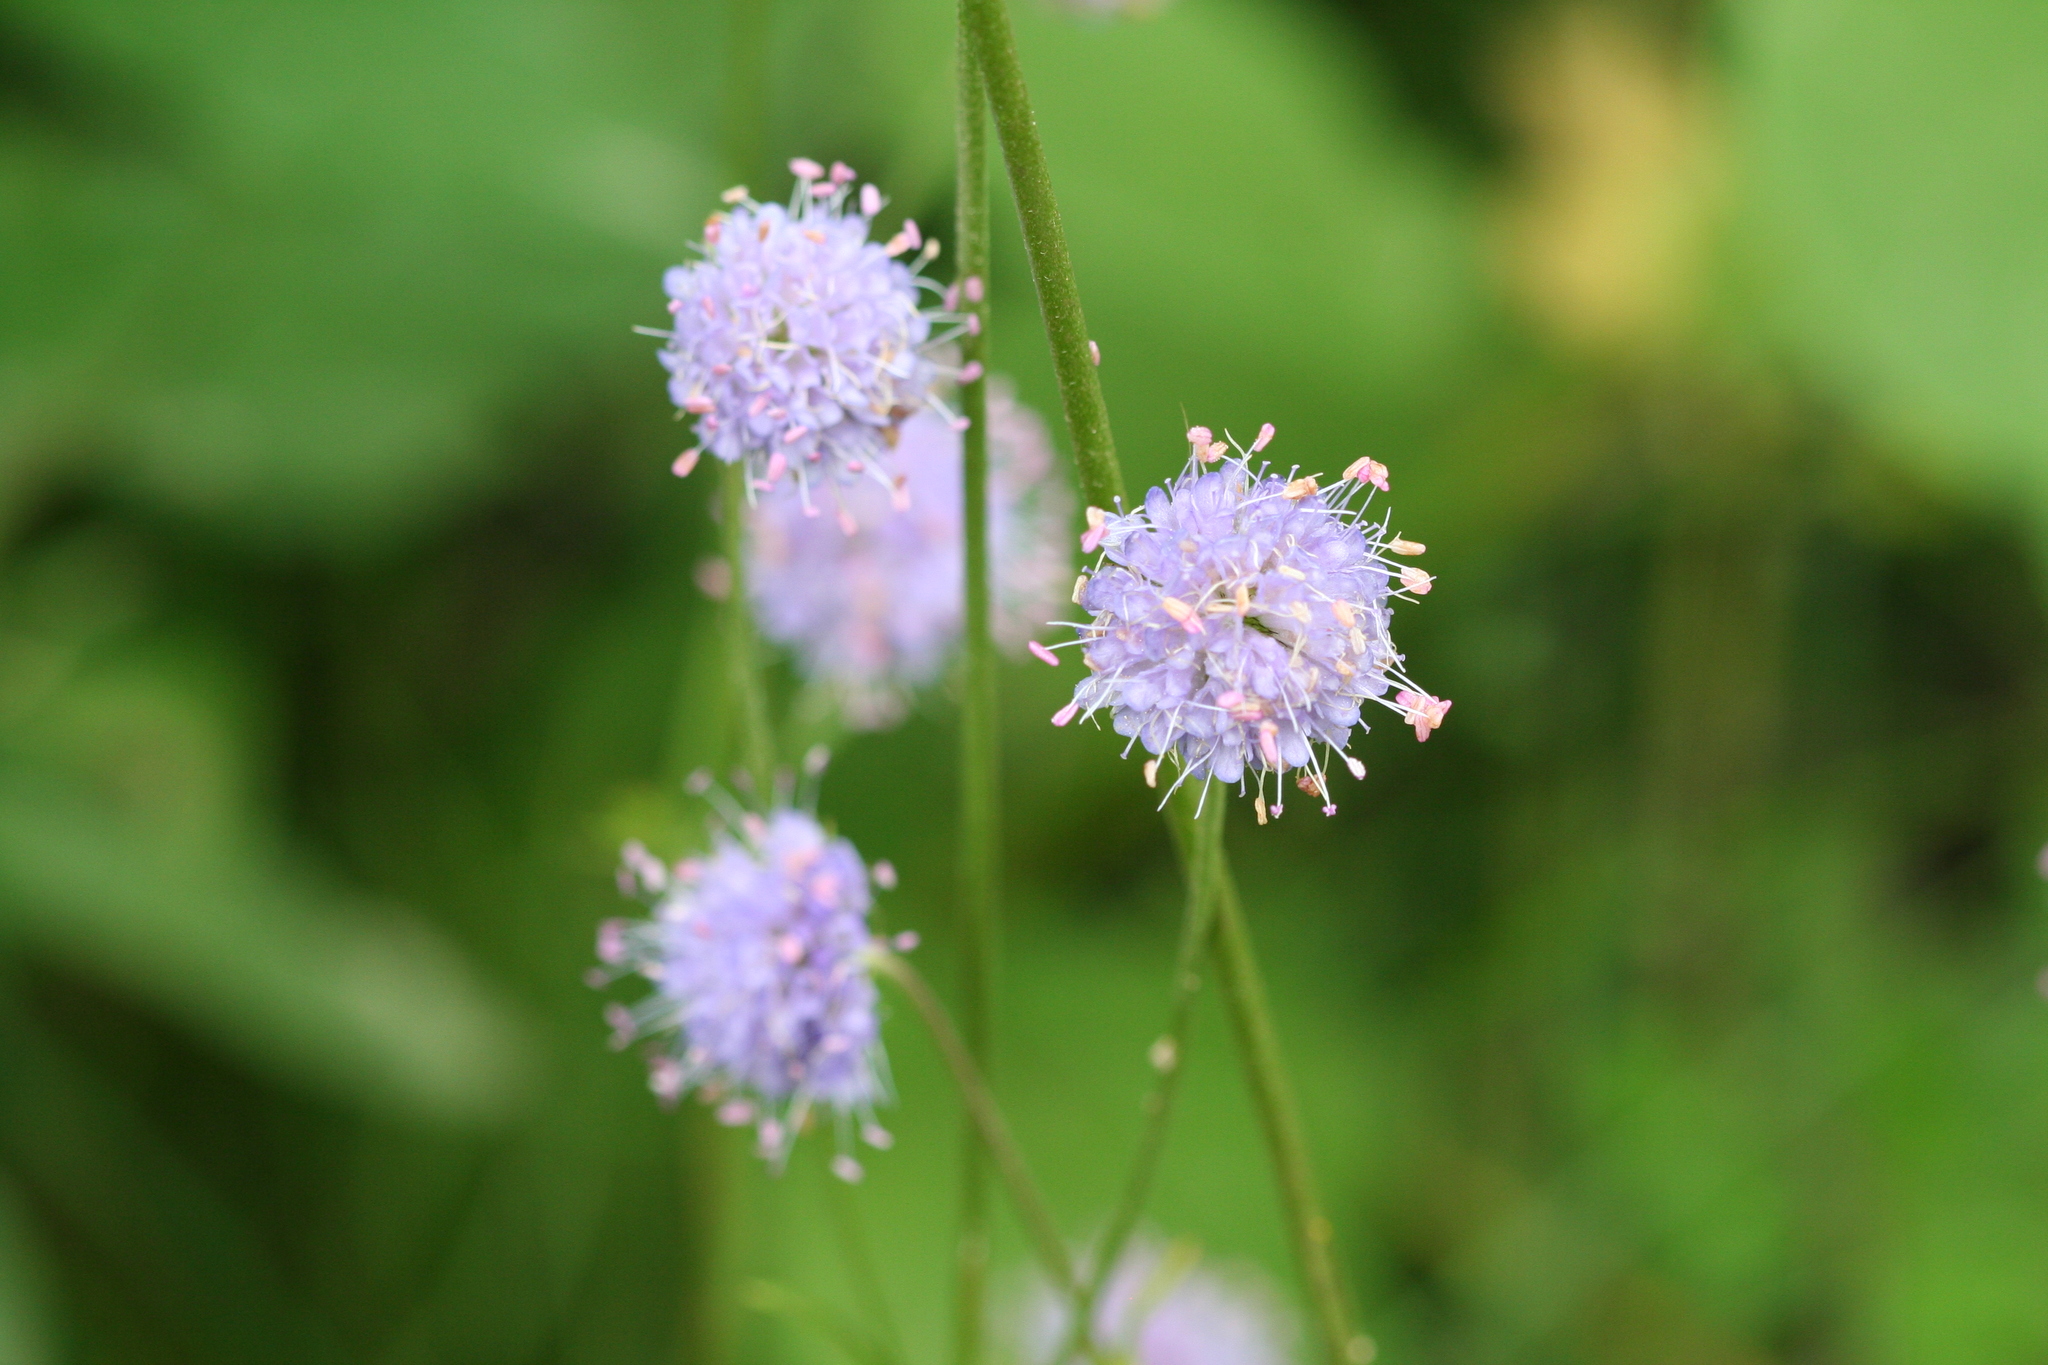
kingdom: Plantae
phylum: Tracheophyta
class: Magnoliopsida
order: Dipsacales
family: Caprifoliaceae
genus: Succisa
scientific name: Succisa pratensis
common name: Devil's-bit
